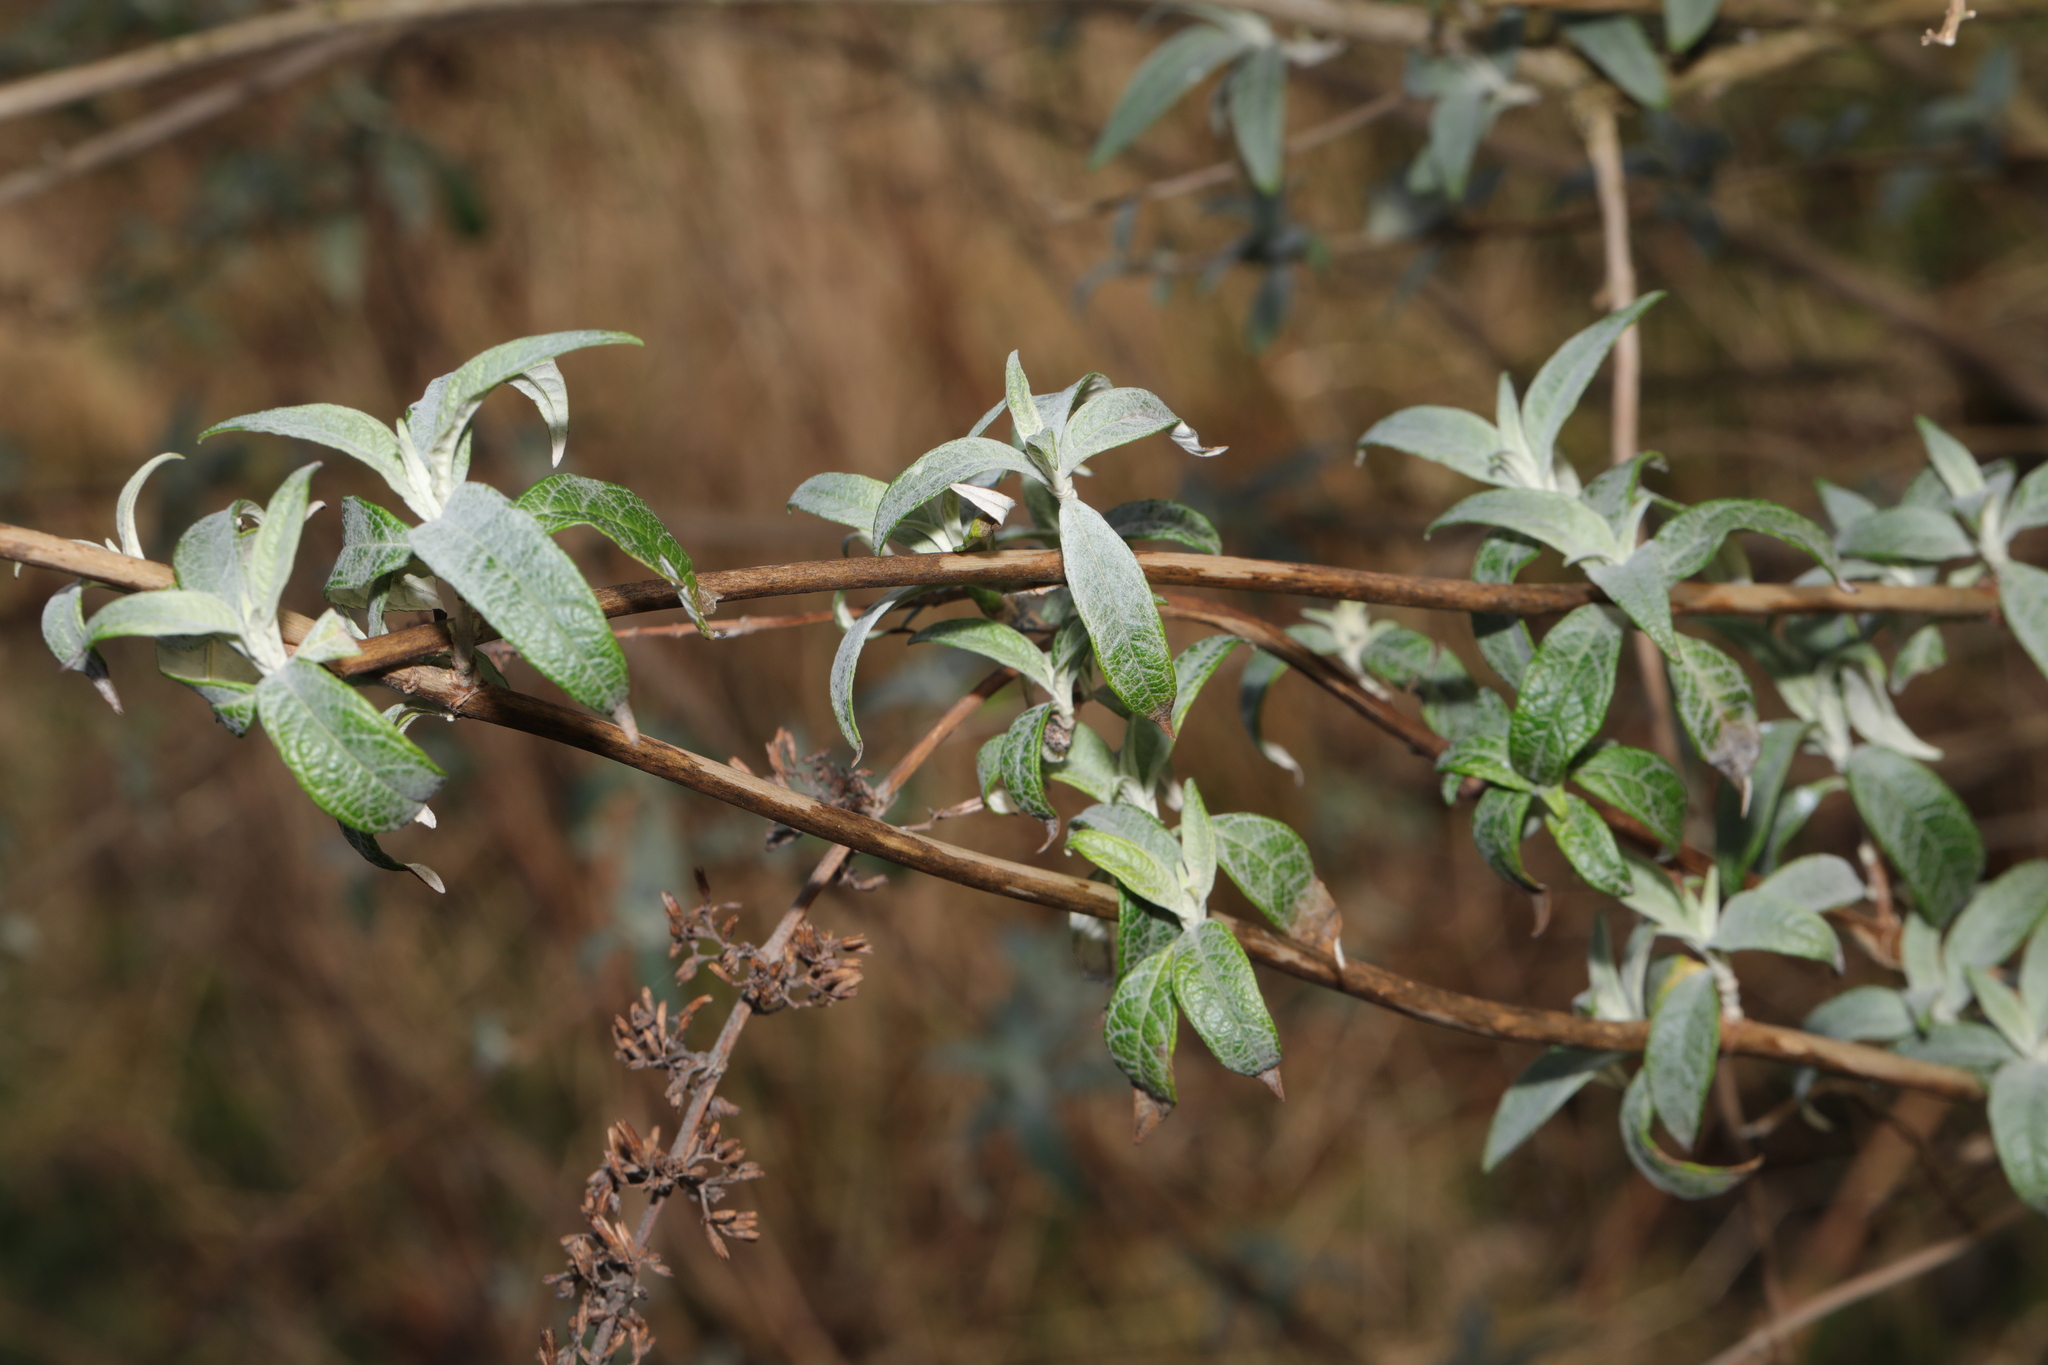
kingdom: Plantae
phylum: Tracheophyta
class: Magnoliopsida
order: Lamiales
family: Scrophulariaceae
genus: Buddleja
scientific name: Buddleja davidii
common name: Butterfly-bush
